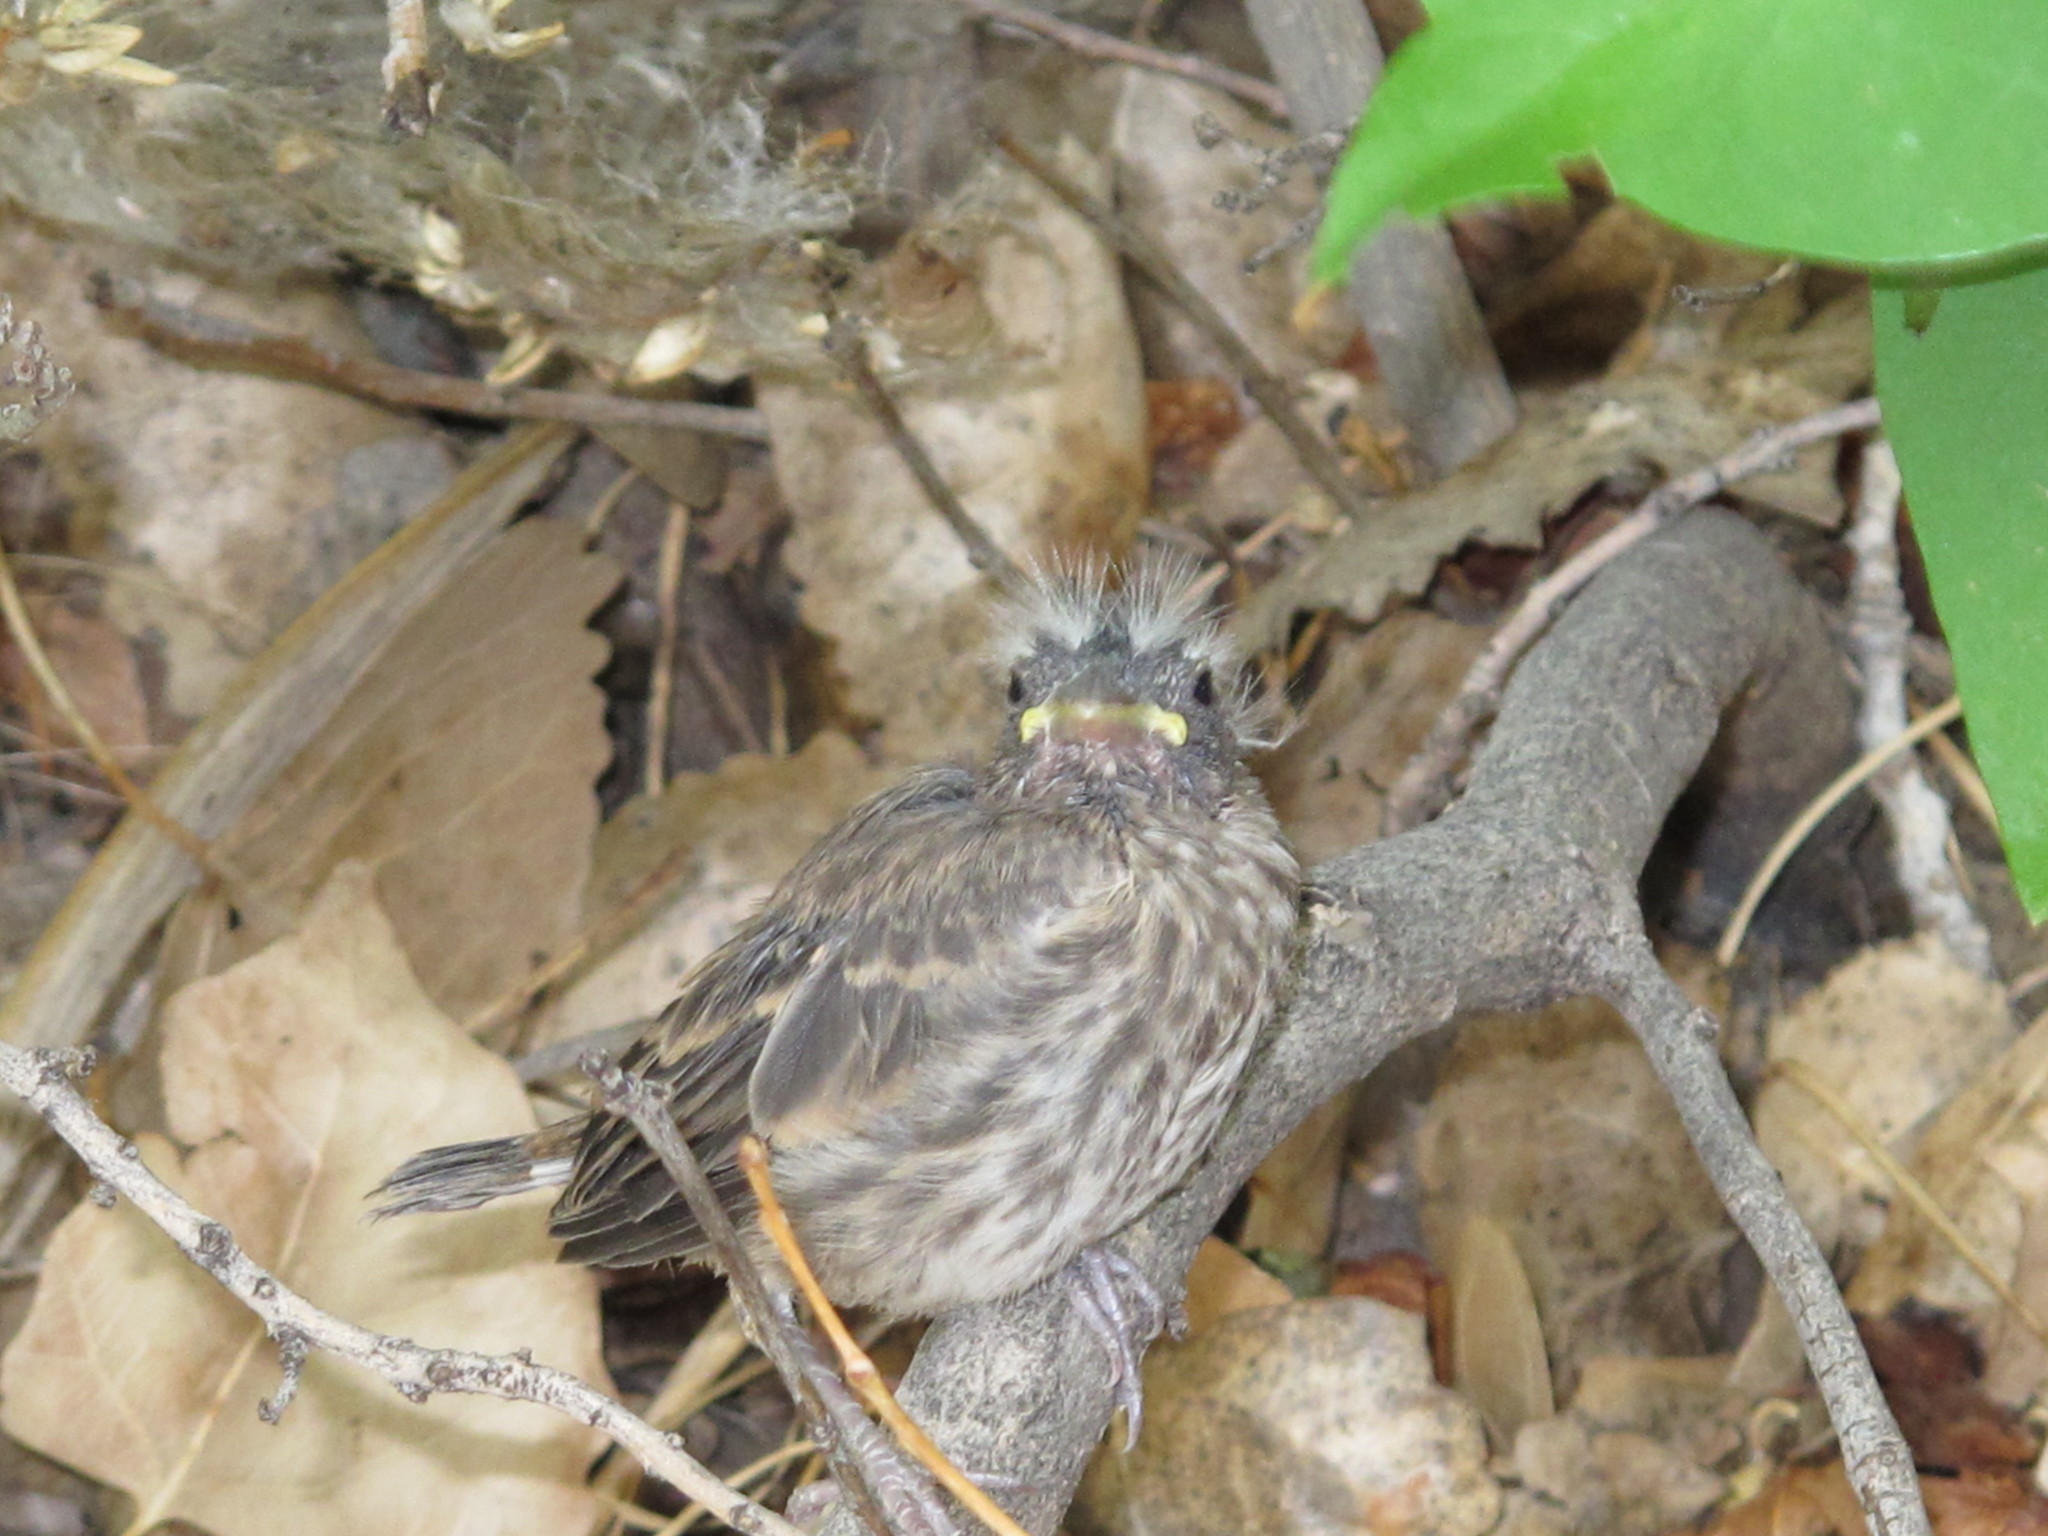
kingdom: Animalia
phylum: Chordata
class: Aves
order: Passeriformes
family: Fringillidae
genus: Haemorhous
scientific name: Haemorhous mexicanus
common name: House finch
